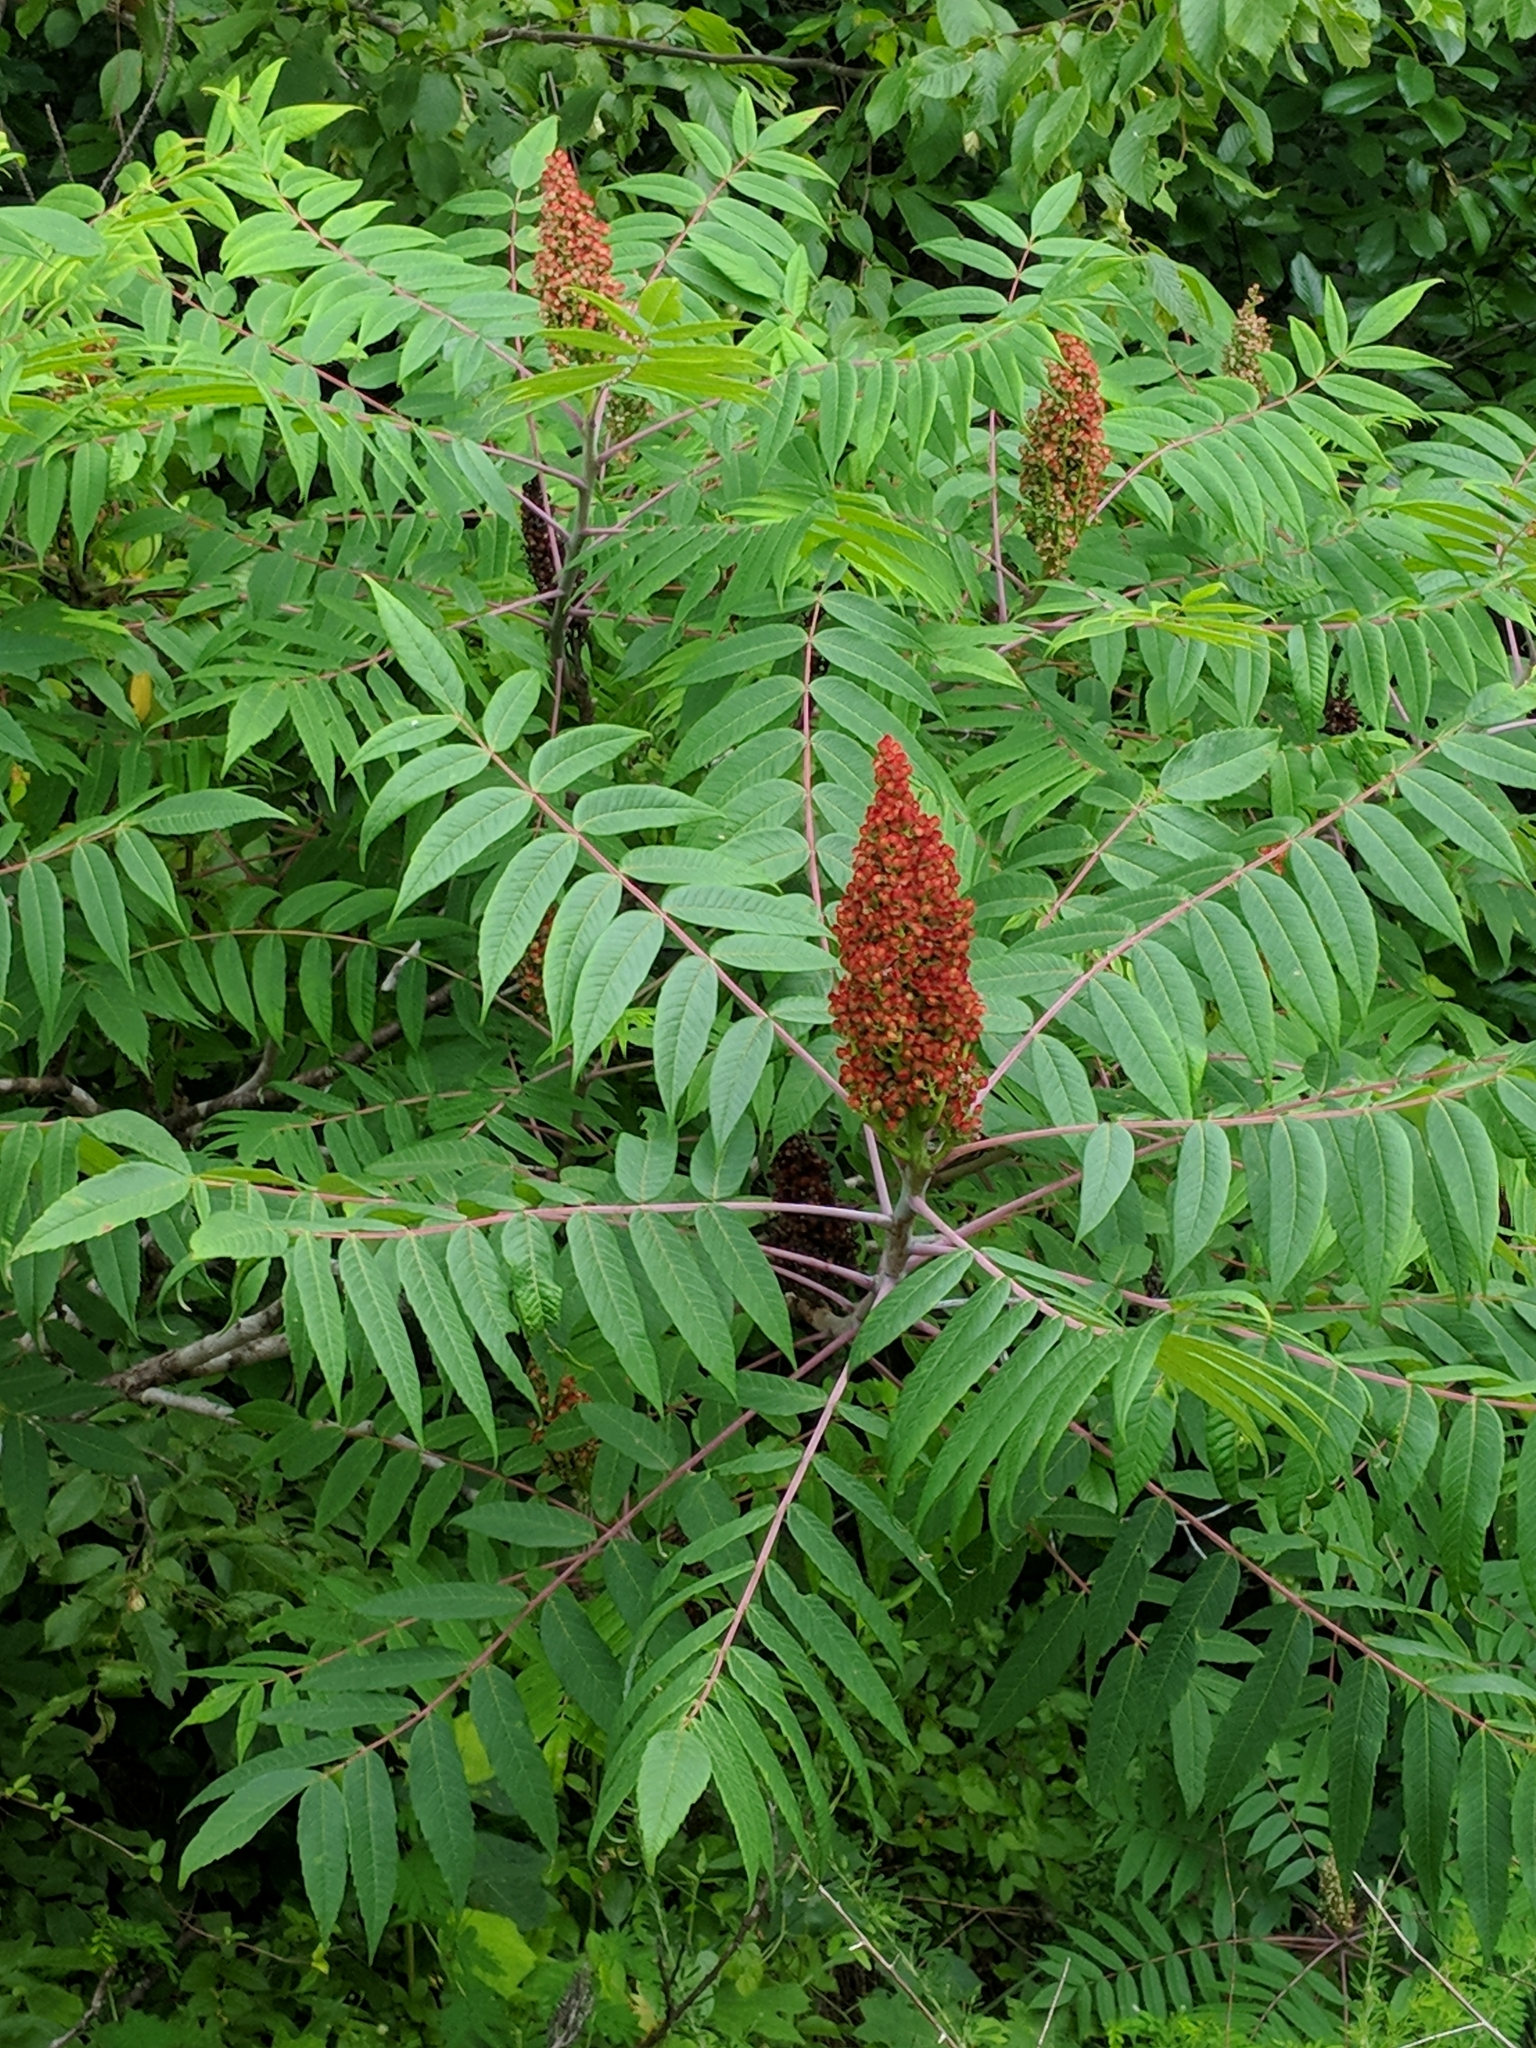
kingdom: Plantae
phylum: Tracheophyta
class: Magnoliopsida
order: Sapindales
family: Anacardiaceae
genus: Rhus
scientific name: Rhus glabra
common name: Scarlet sumac
